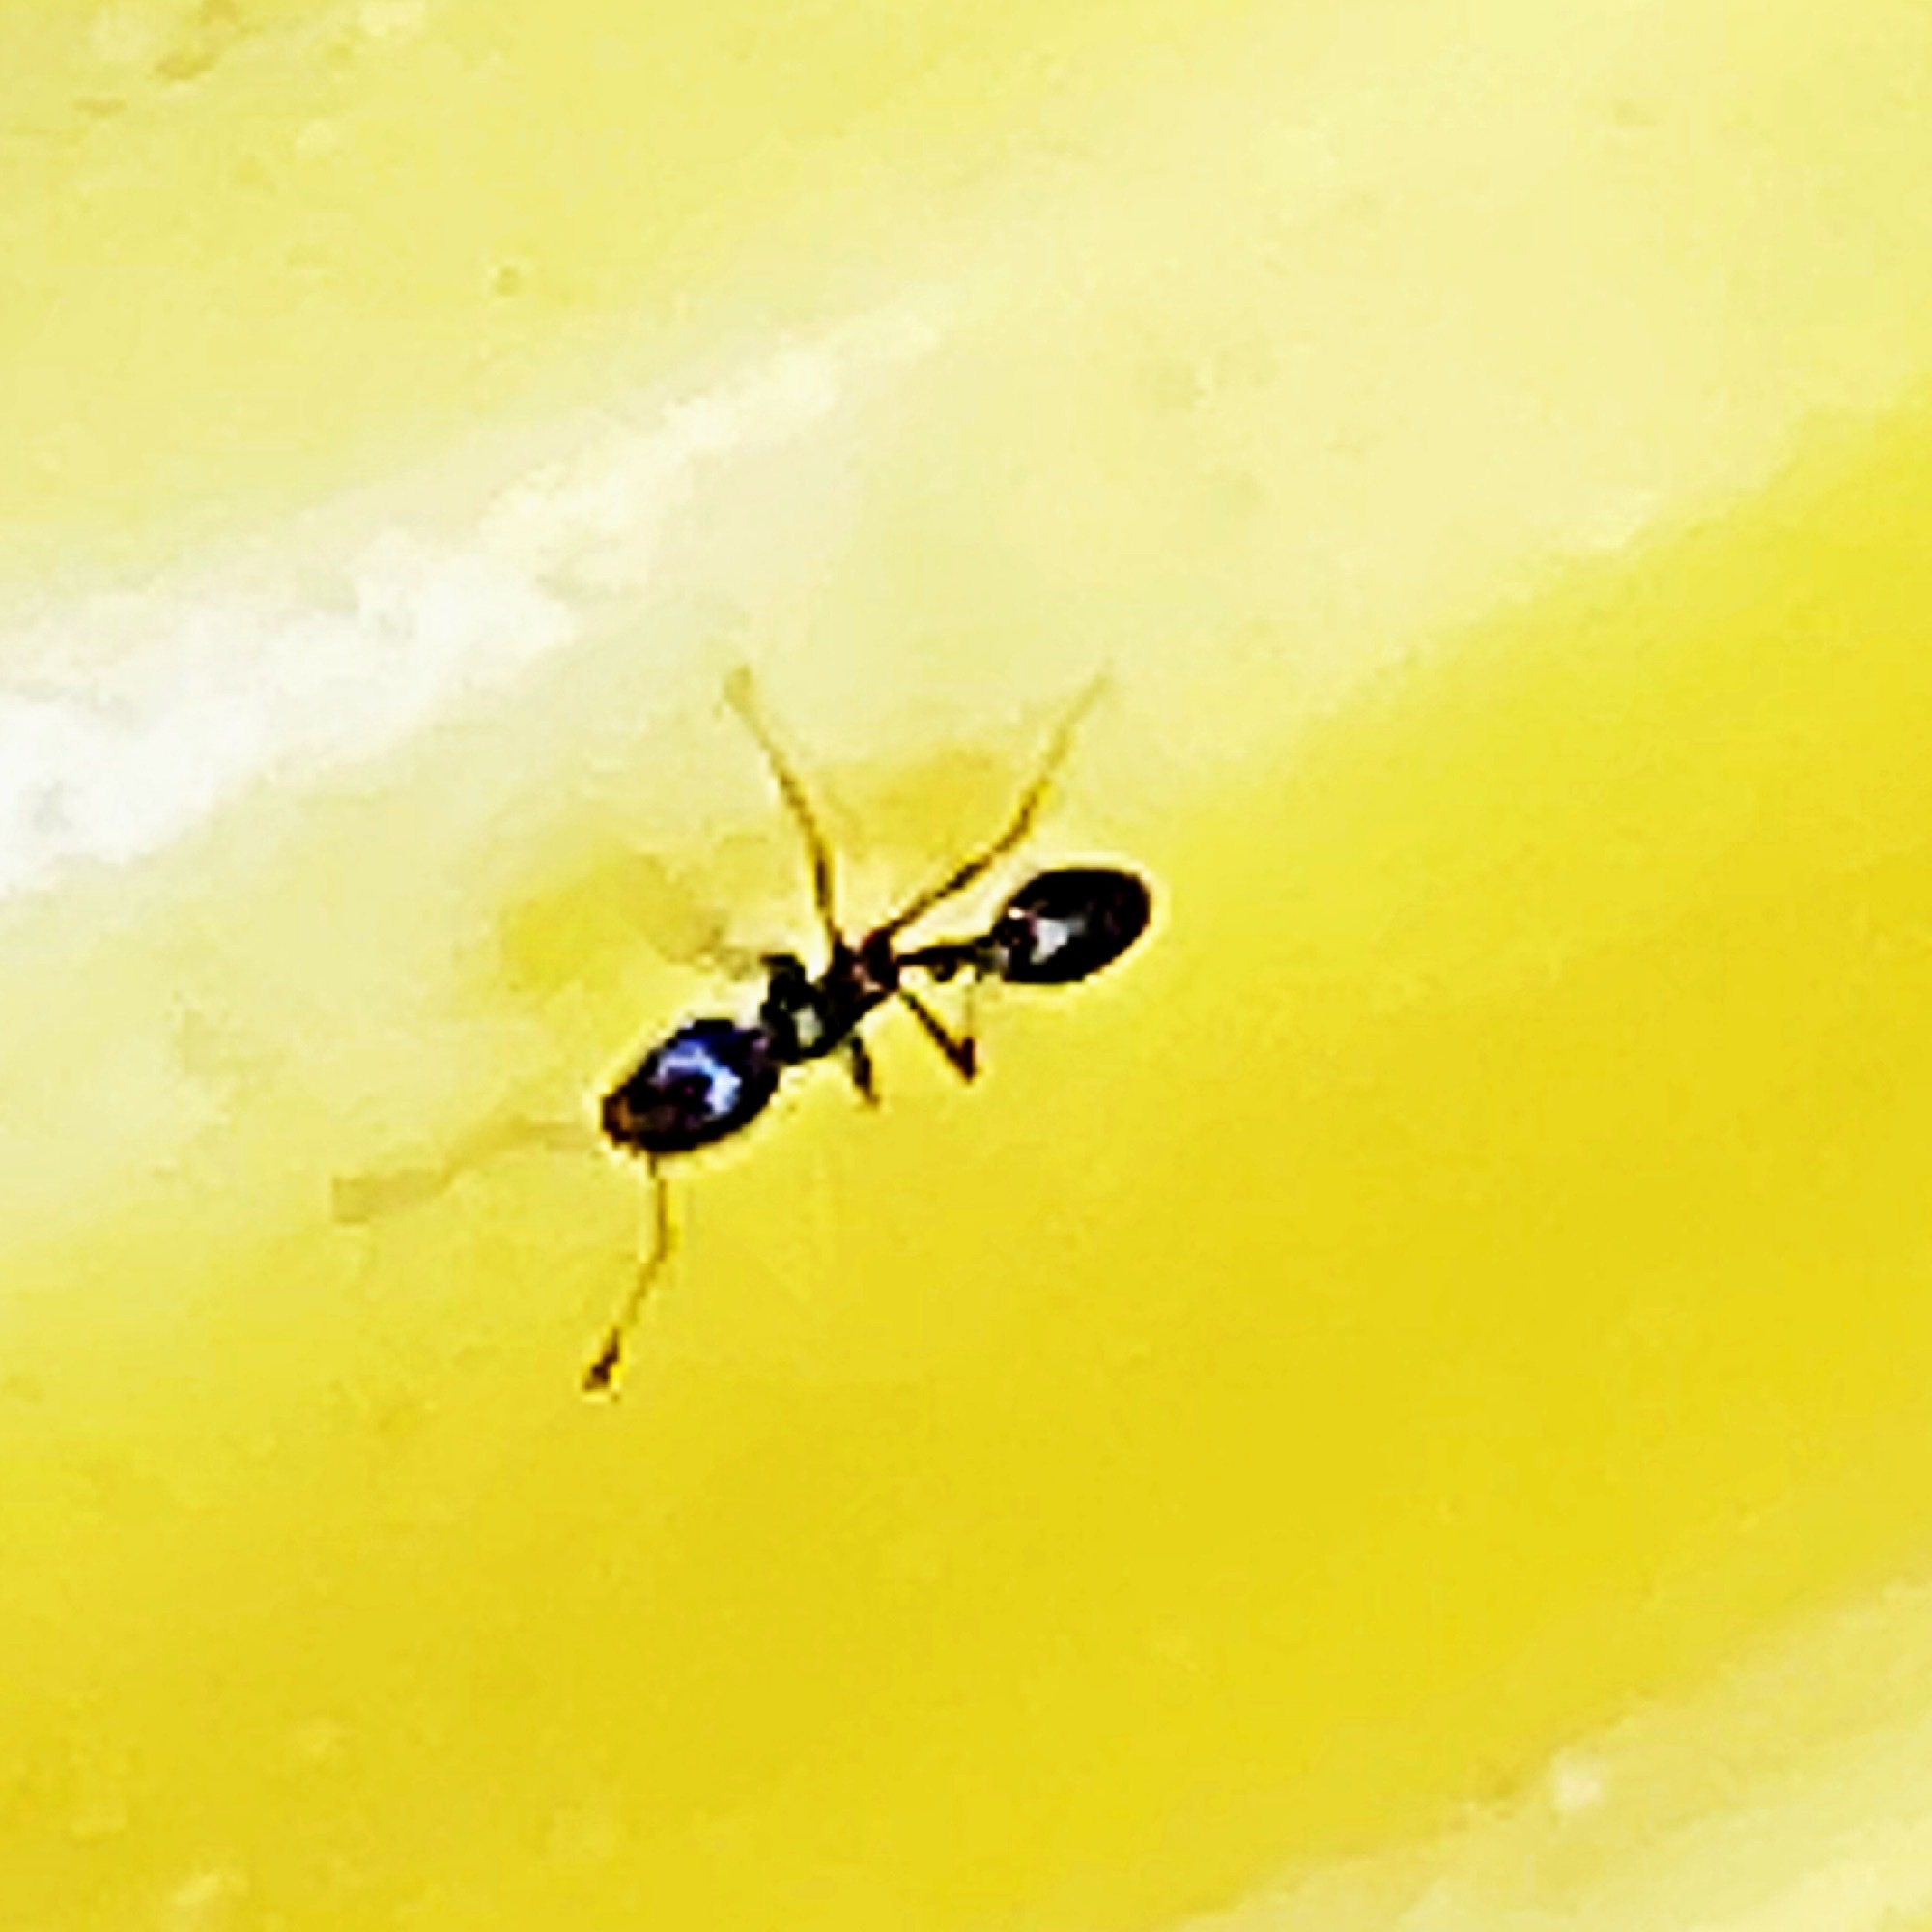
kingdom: Animalia
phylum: Arthropoda
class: Insecta
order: Hymenoptera
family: Formicidae
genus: Monomorium
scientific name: Monomorium minimum
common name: Little black ant
